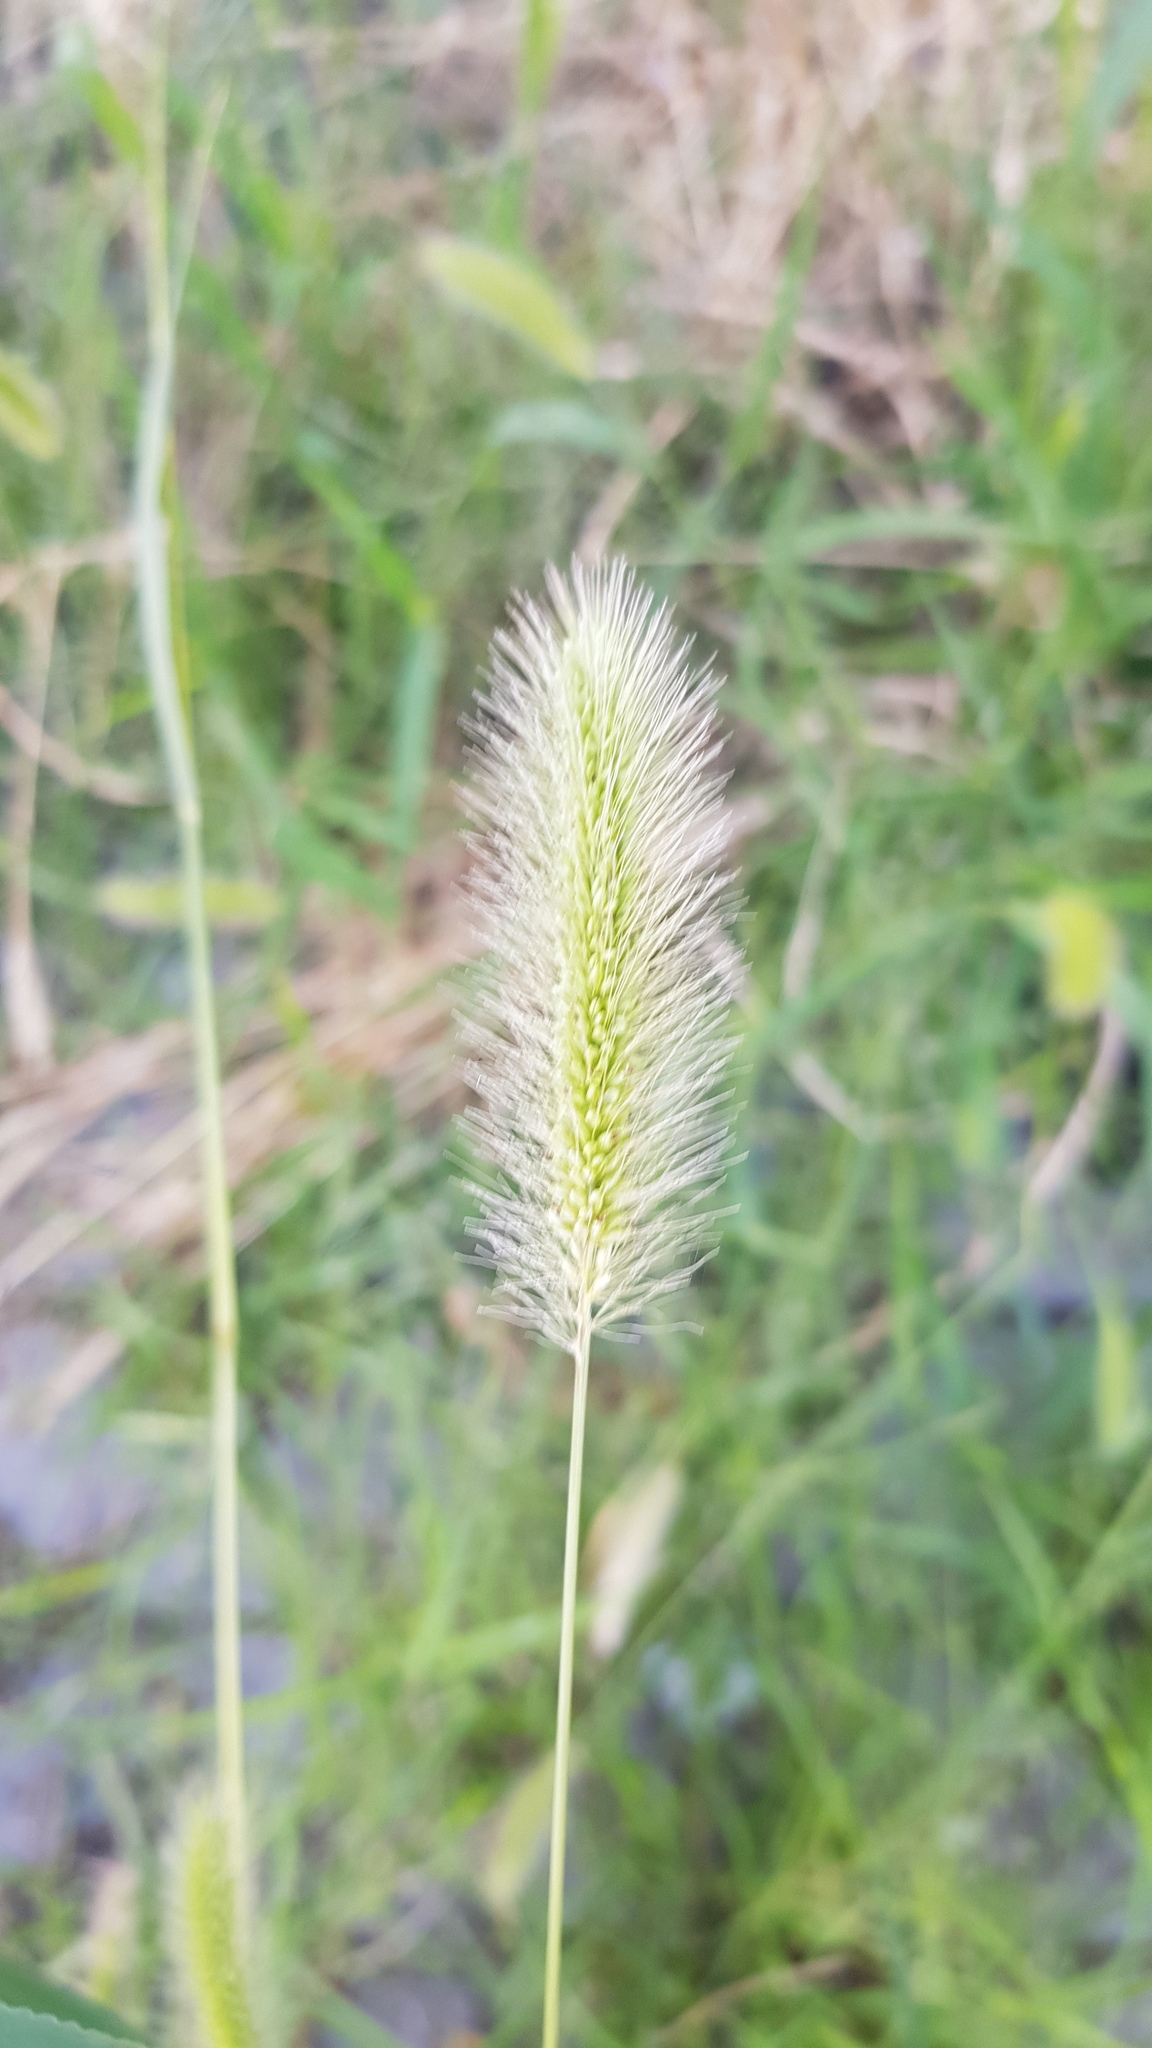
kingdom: Plantae
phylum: Tracheophyta
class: Liliopsida
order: Poales
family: Poaceae
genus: Setaria
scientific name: Setaria viridis
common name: Green bristlegrass
